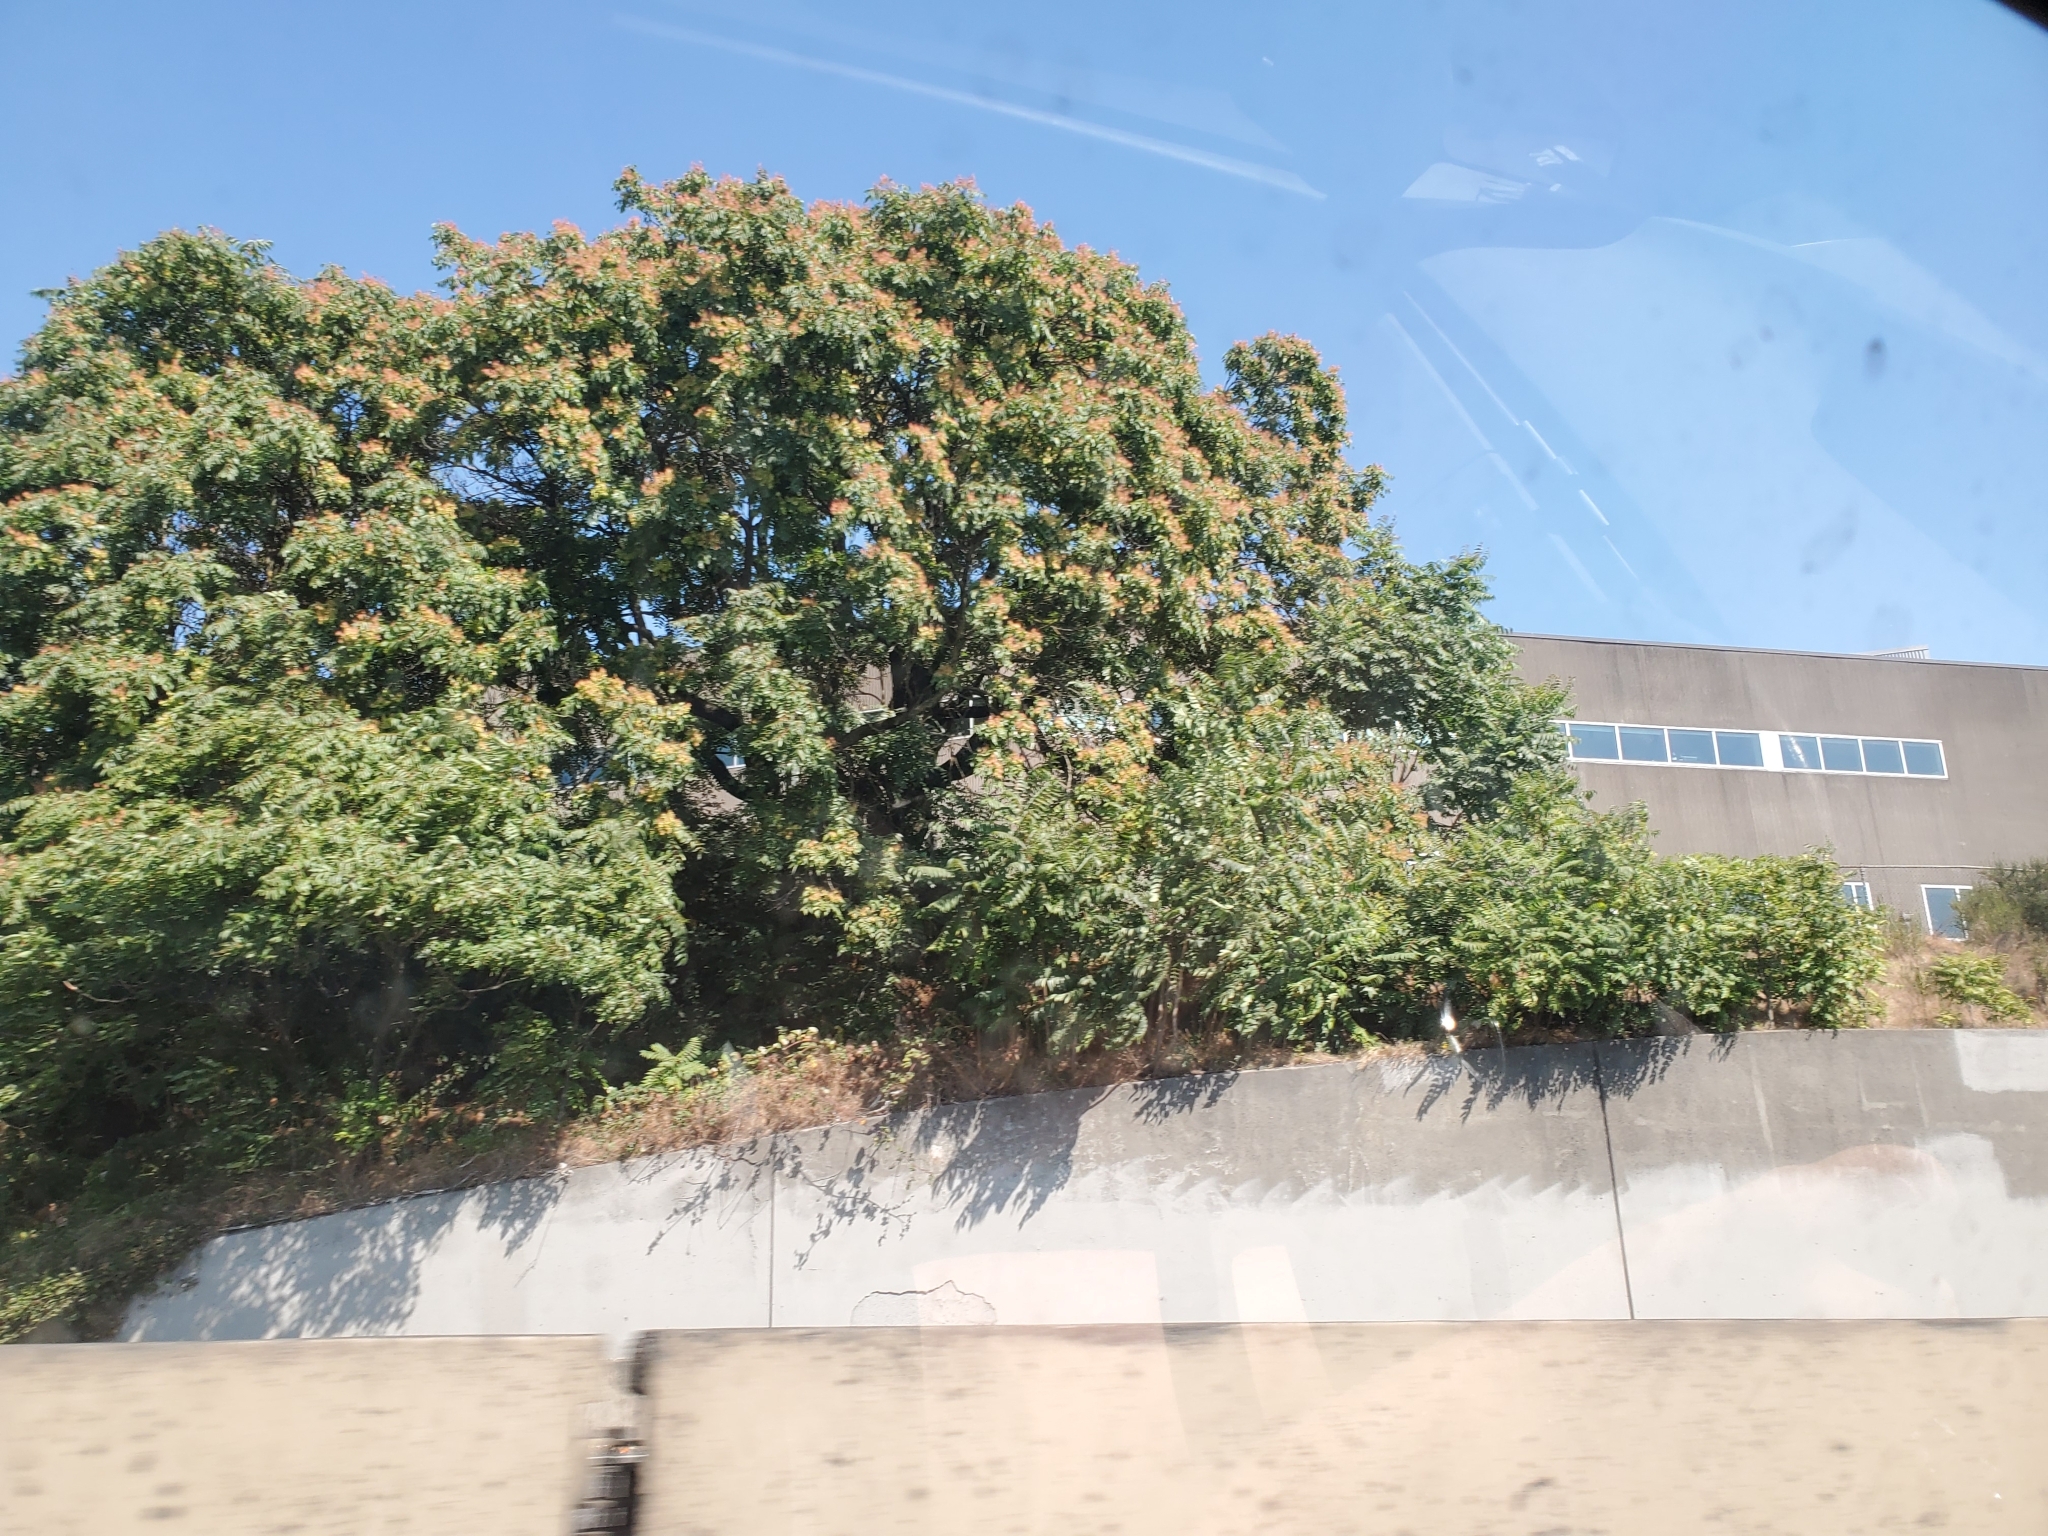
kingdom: Plantae
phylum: Tracheophyta
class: Magnoliopsida
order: Sapindales
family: Simaroubaceae
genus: Ailanthus
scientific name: Ailanthus altissima
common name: Tree-of-heaven
